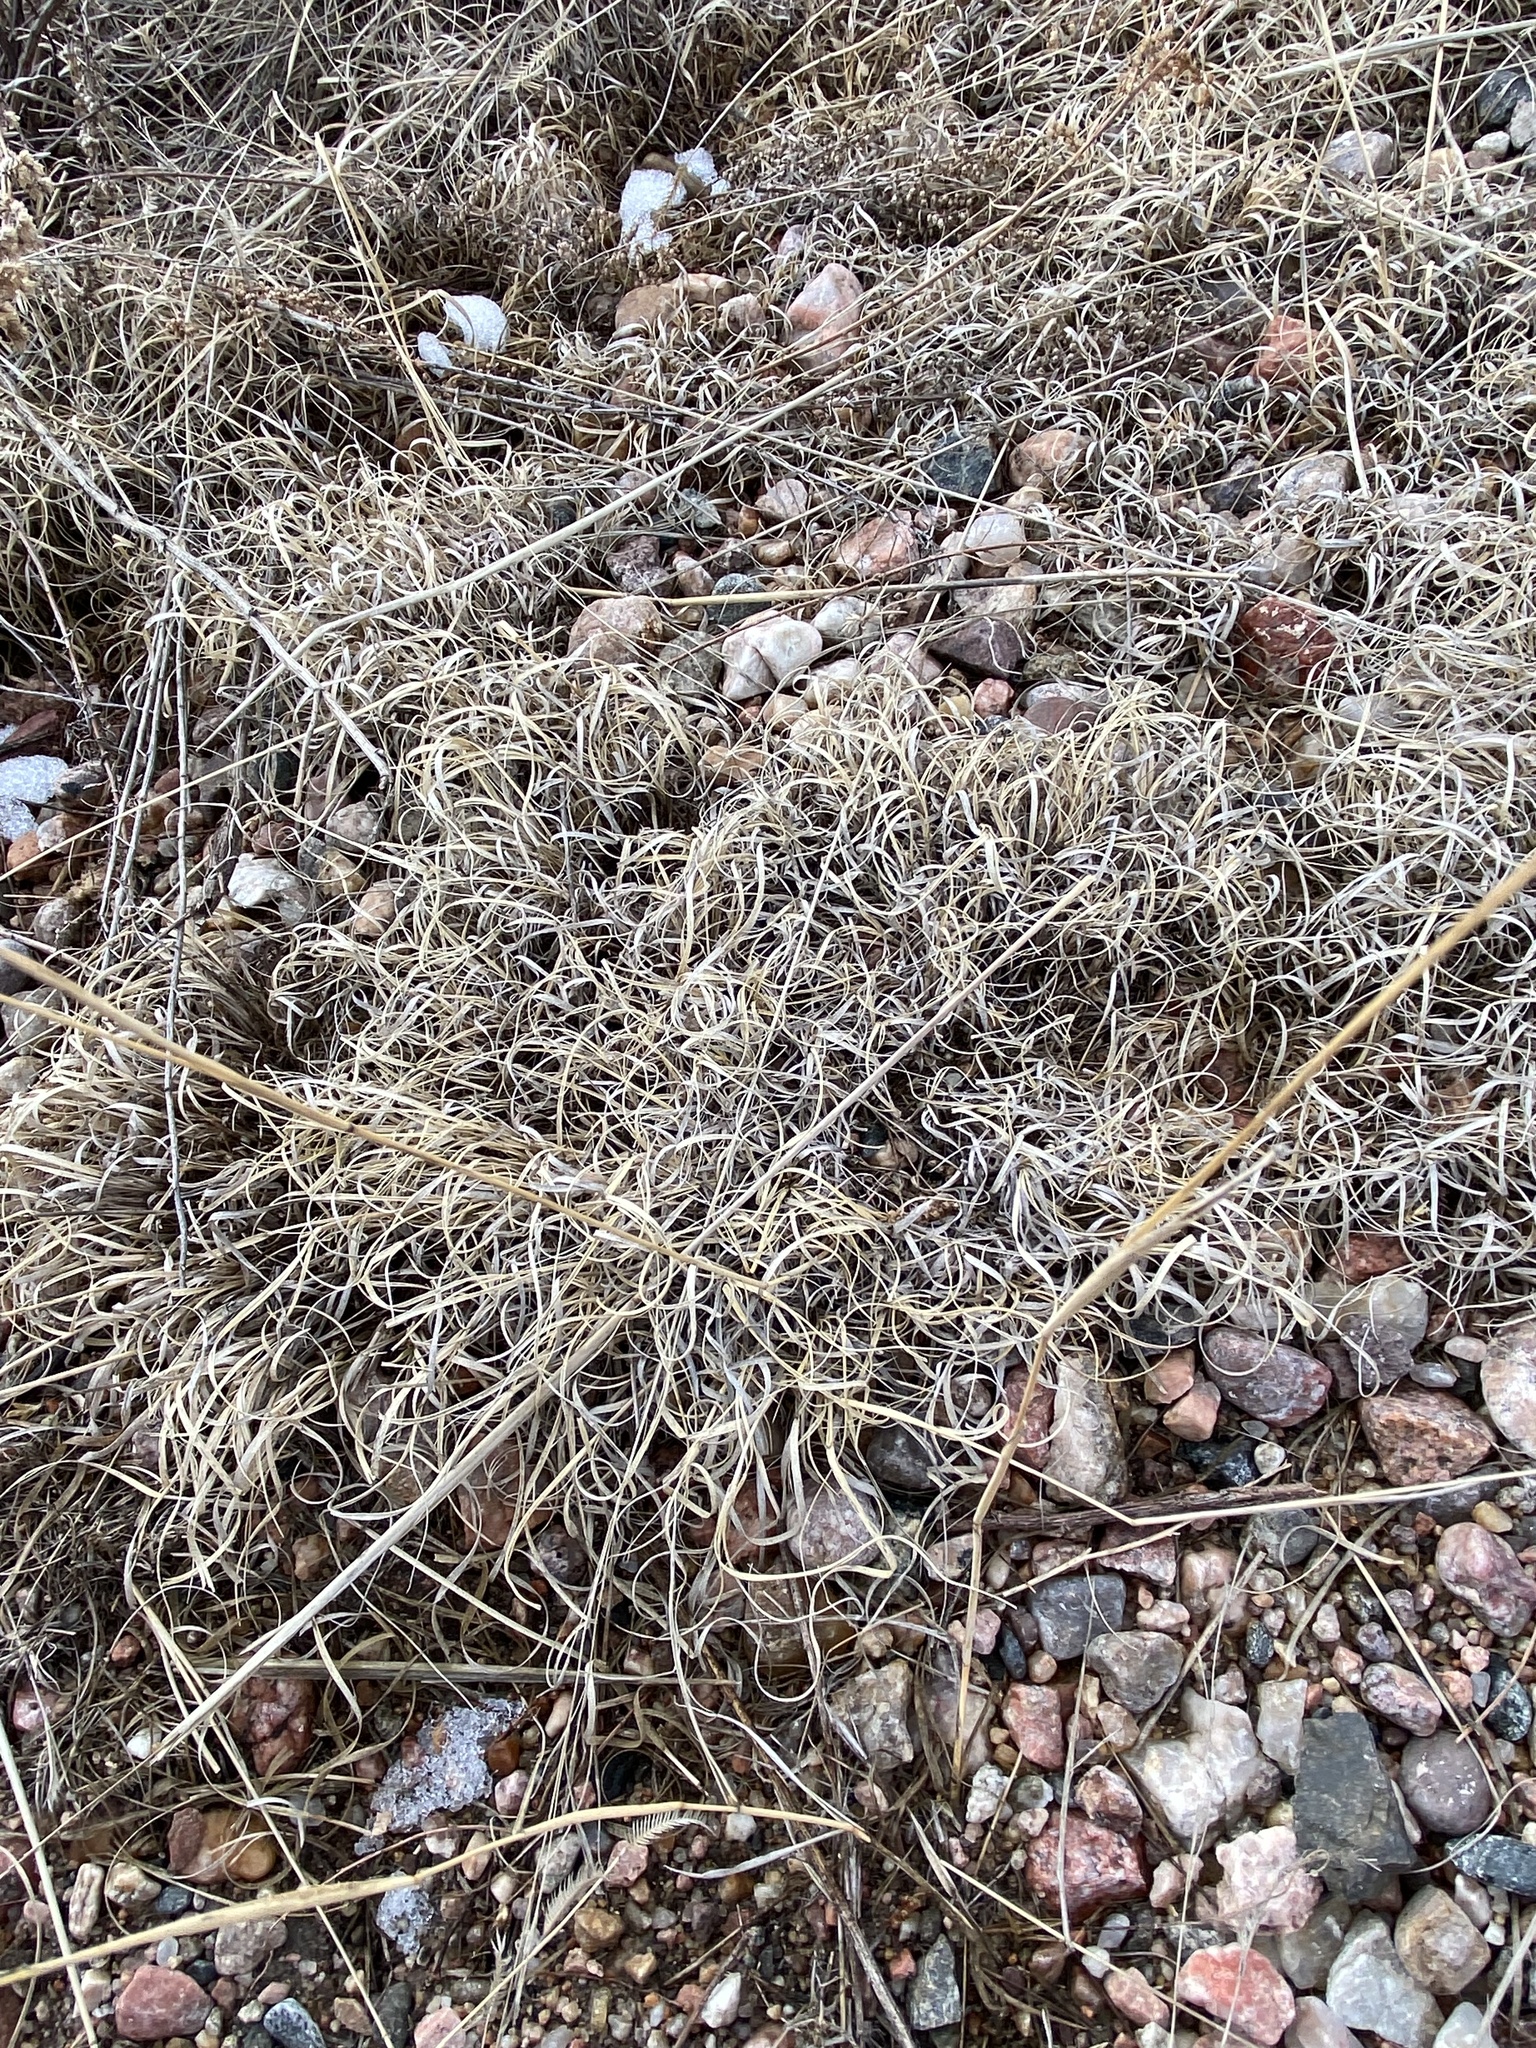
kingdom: Plantae
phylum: Tracheophyta
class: Liliopsida
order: Poales
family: Poaceae
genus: Bouteloua
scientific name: Bouteloua gracilis
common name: Blue grama
